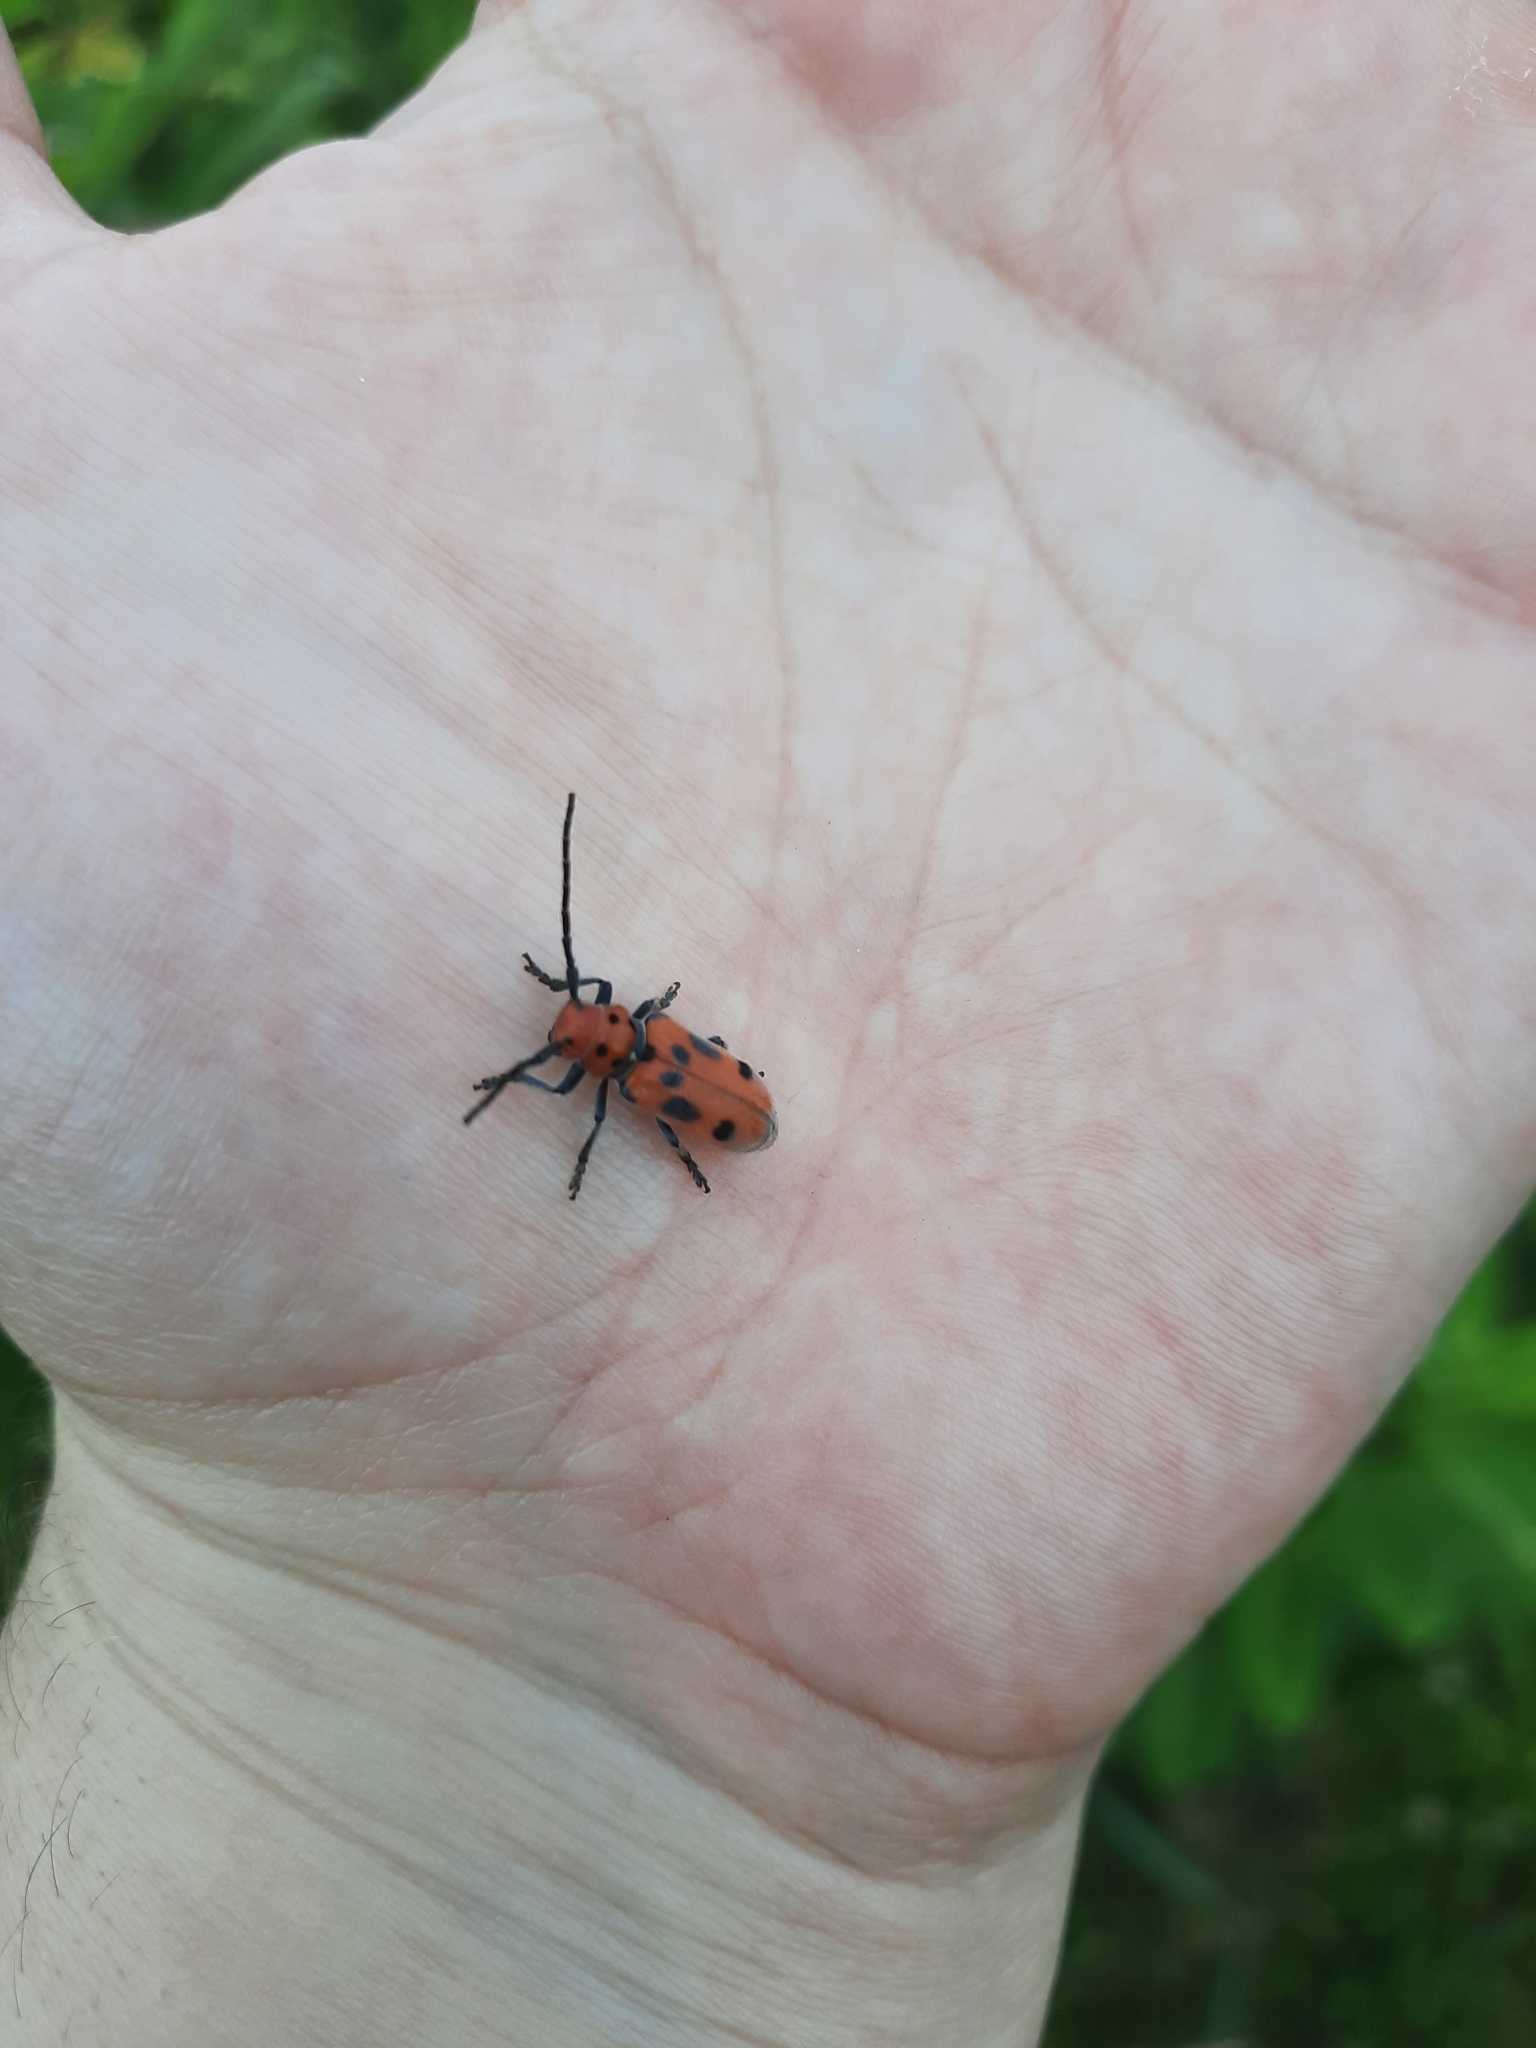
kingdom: Animalia
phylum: Arthropoda
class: Insecta
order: Coleoptera
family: Cerambycidae
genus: Tetraopes
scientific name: Tetraopes tetrophthalmus
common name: Red milkweed beetle
